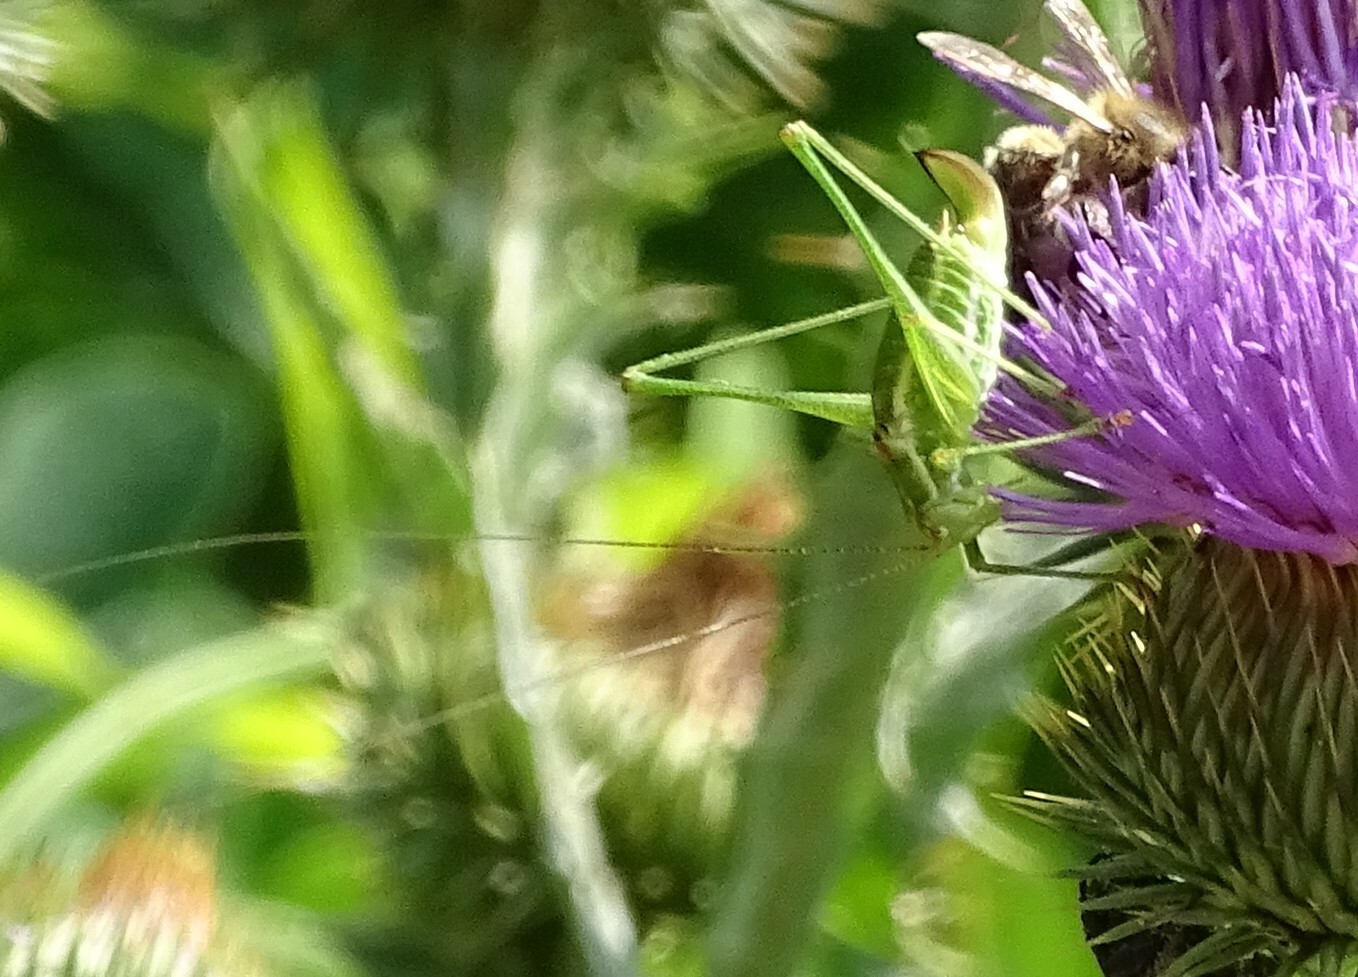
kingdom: Animalia
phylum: Arthropoda
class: Insecta
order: Orthoptera
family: Tettigoniidae
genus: Leptophyes
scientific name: Leptophyes albovittata
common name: Striped bush-cricket
